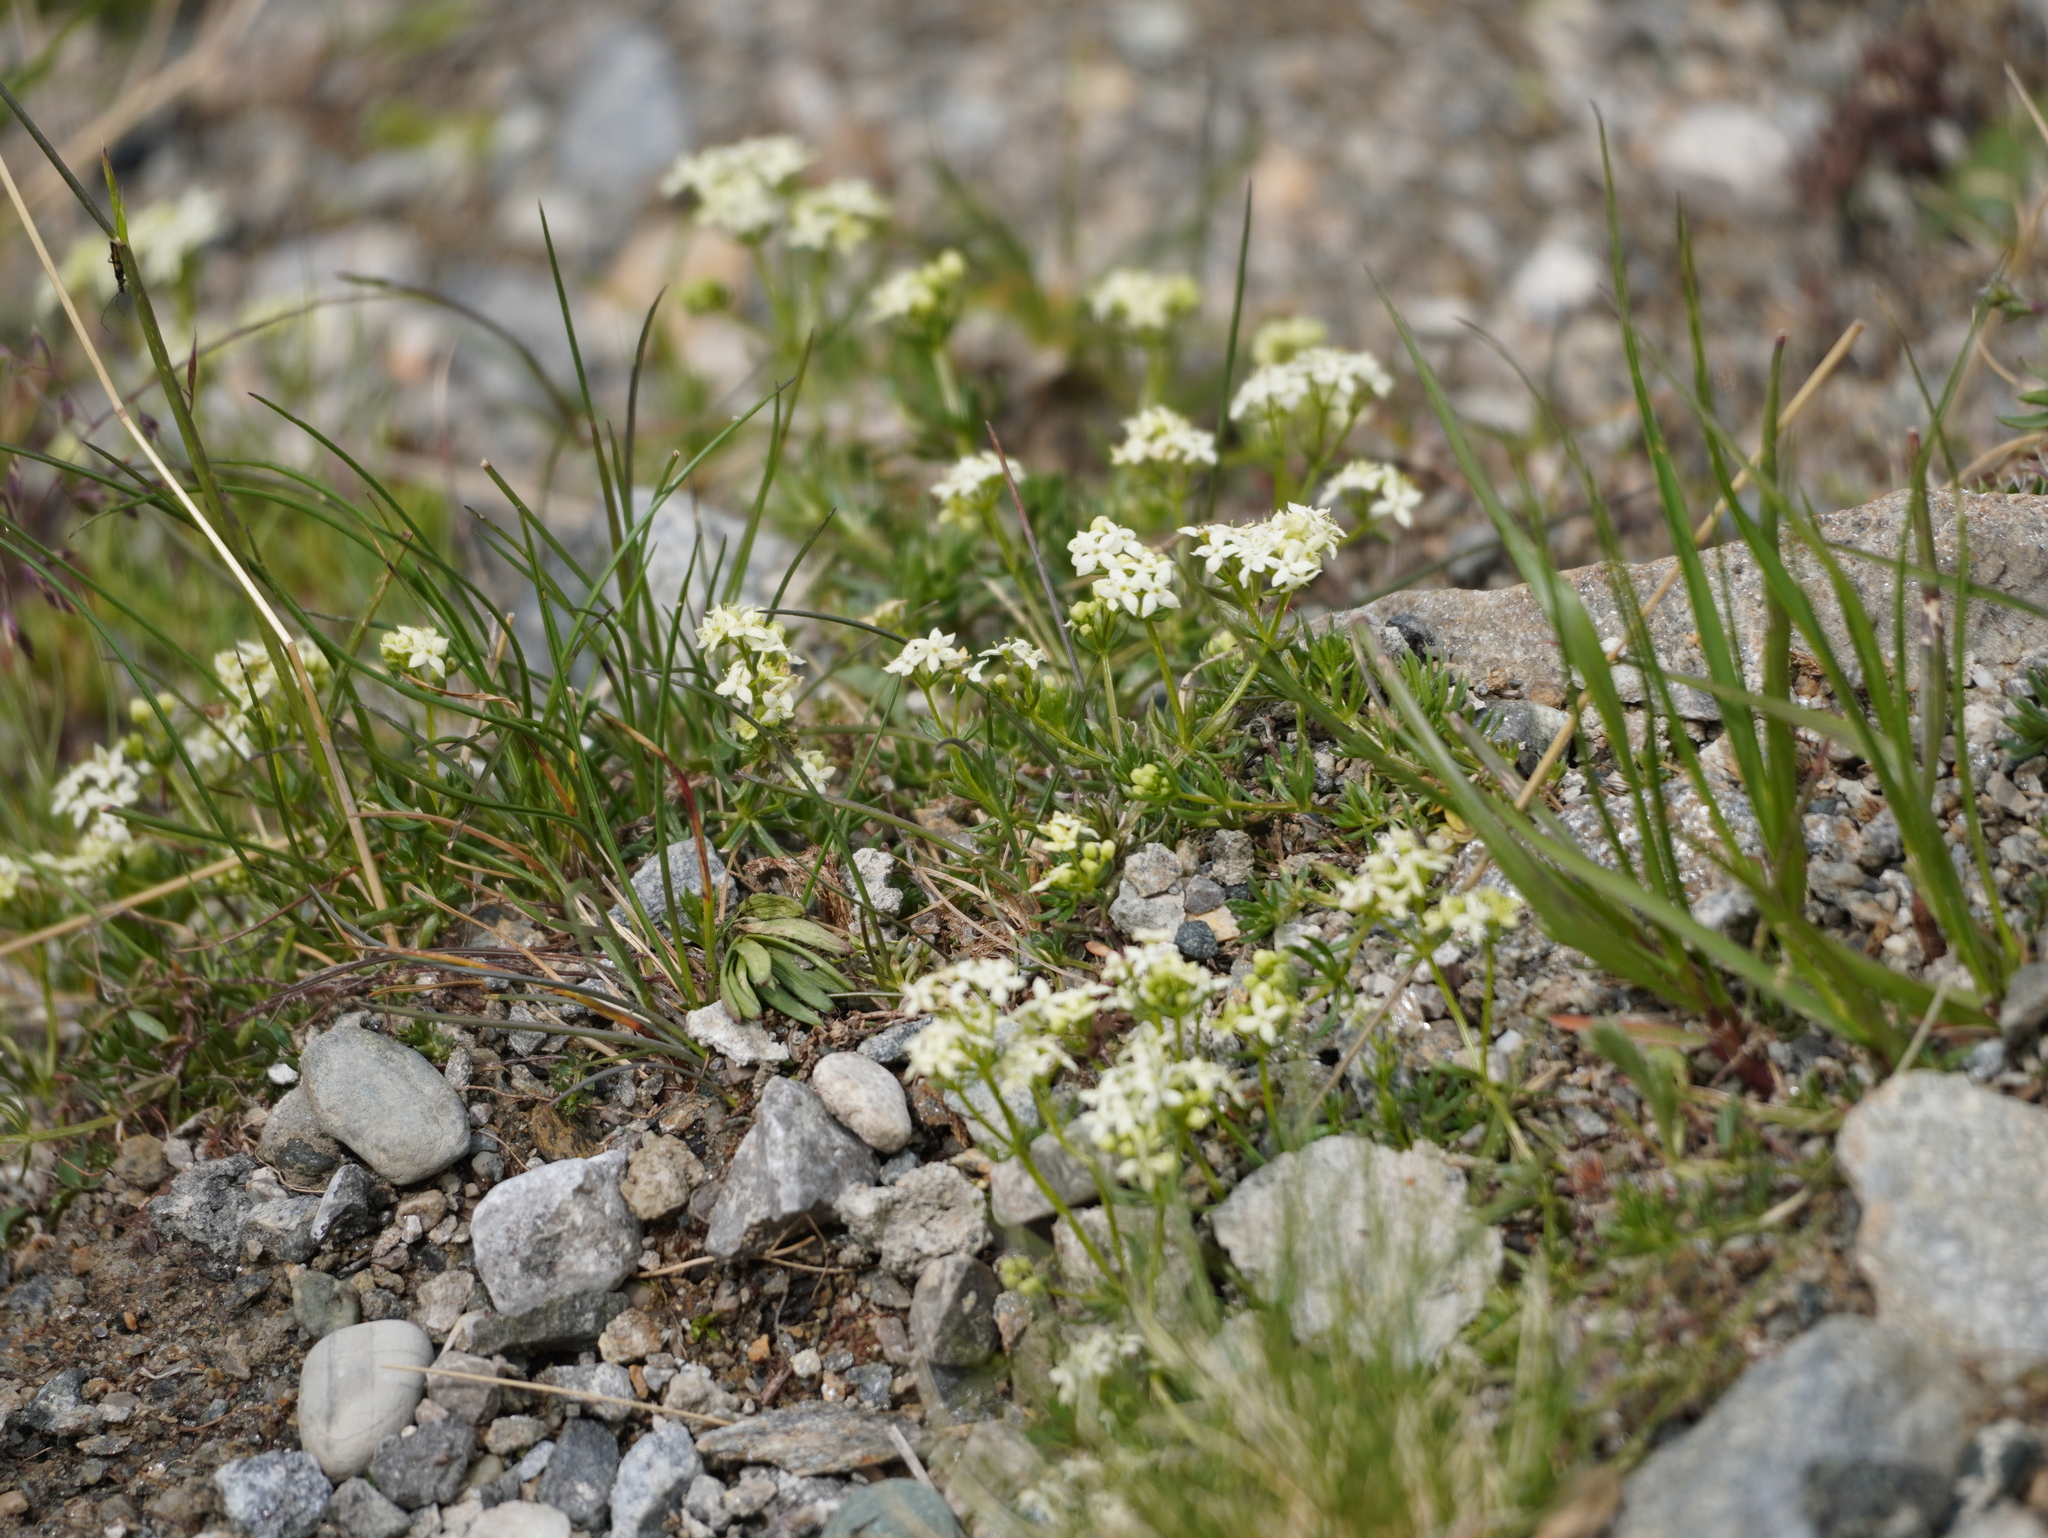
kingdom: Plantae
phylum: Tracheophyta
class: Magnoliopsida
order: Gentianales
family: Rubiaceae
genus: Galium
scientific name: Galium anisophyllon
